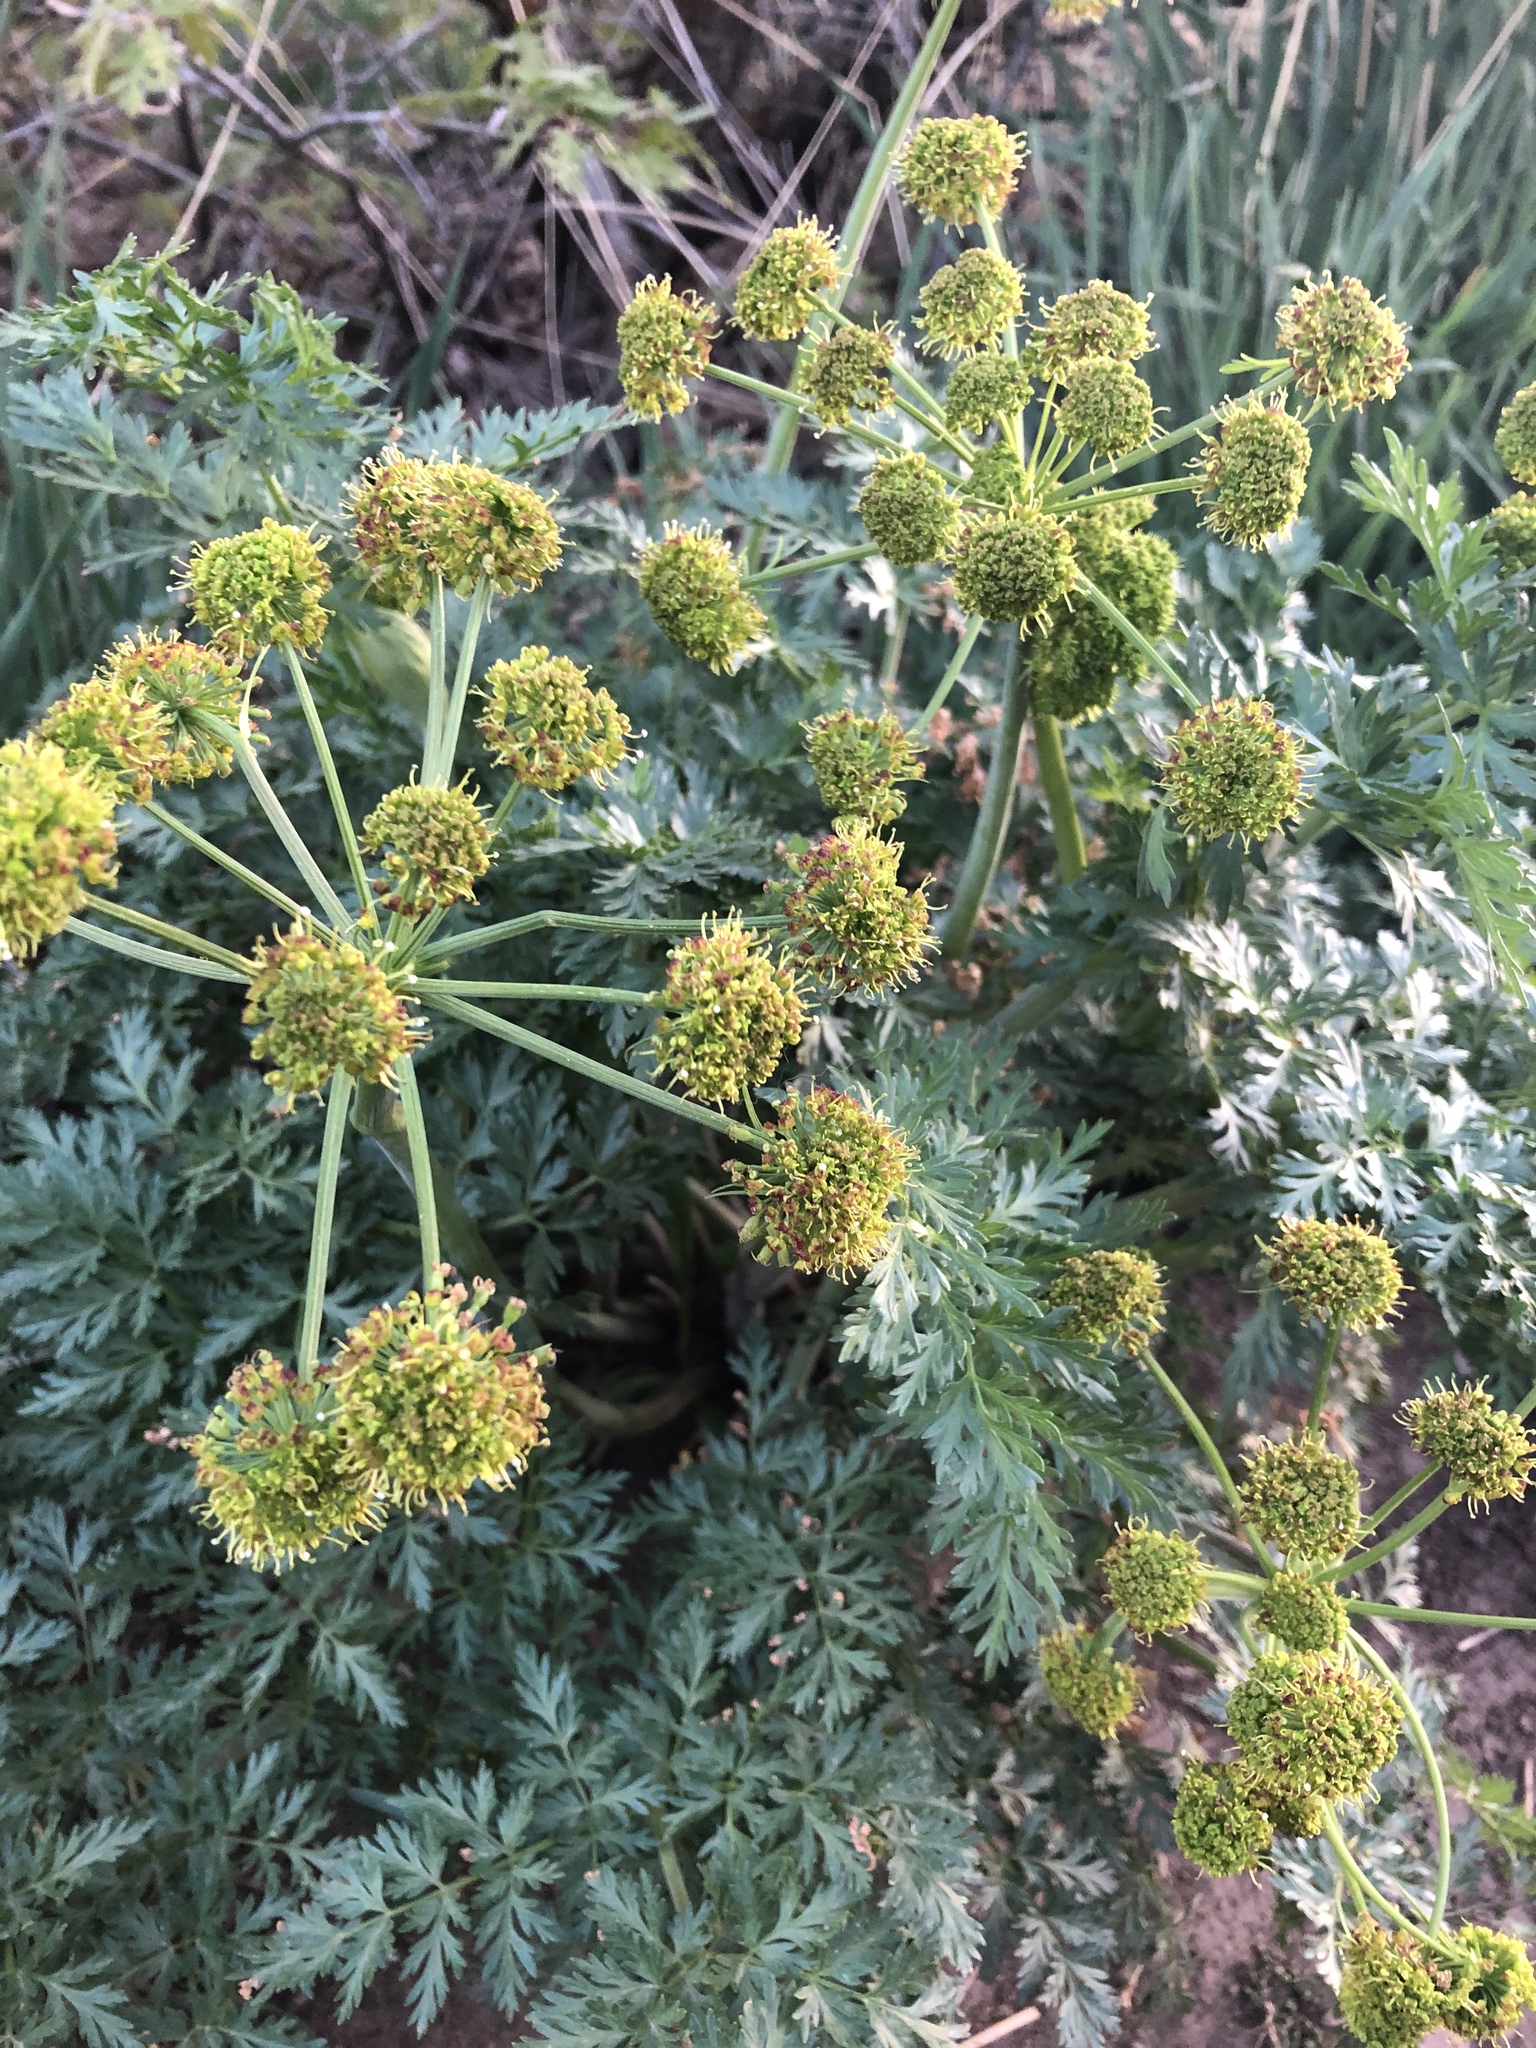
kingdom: Plantae
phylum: Tracheophyta
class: Magnoliopsida
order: Apiales
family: Apiaceae
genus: Lomatium
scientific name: Lomatium dissectum
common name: Lomatium
